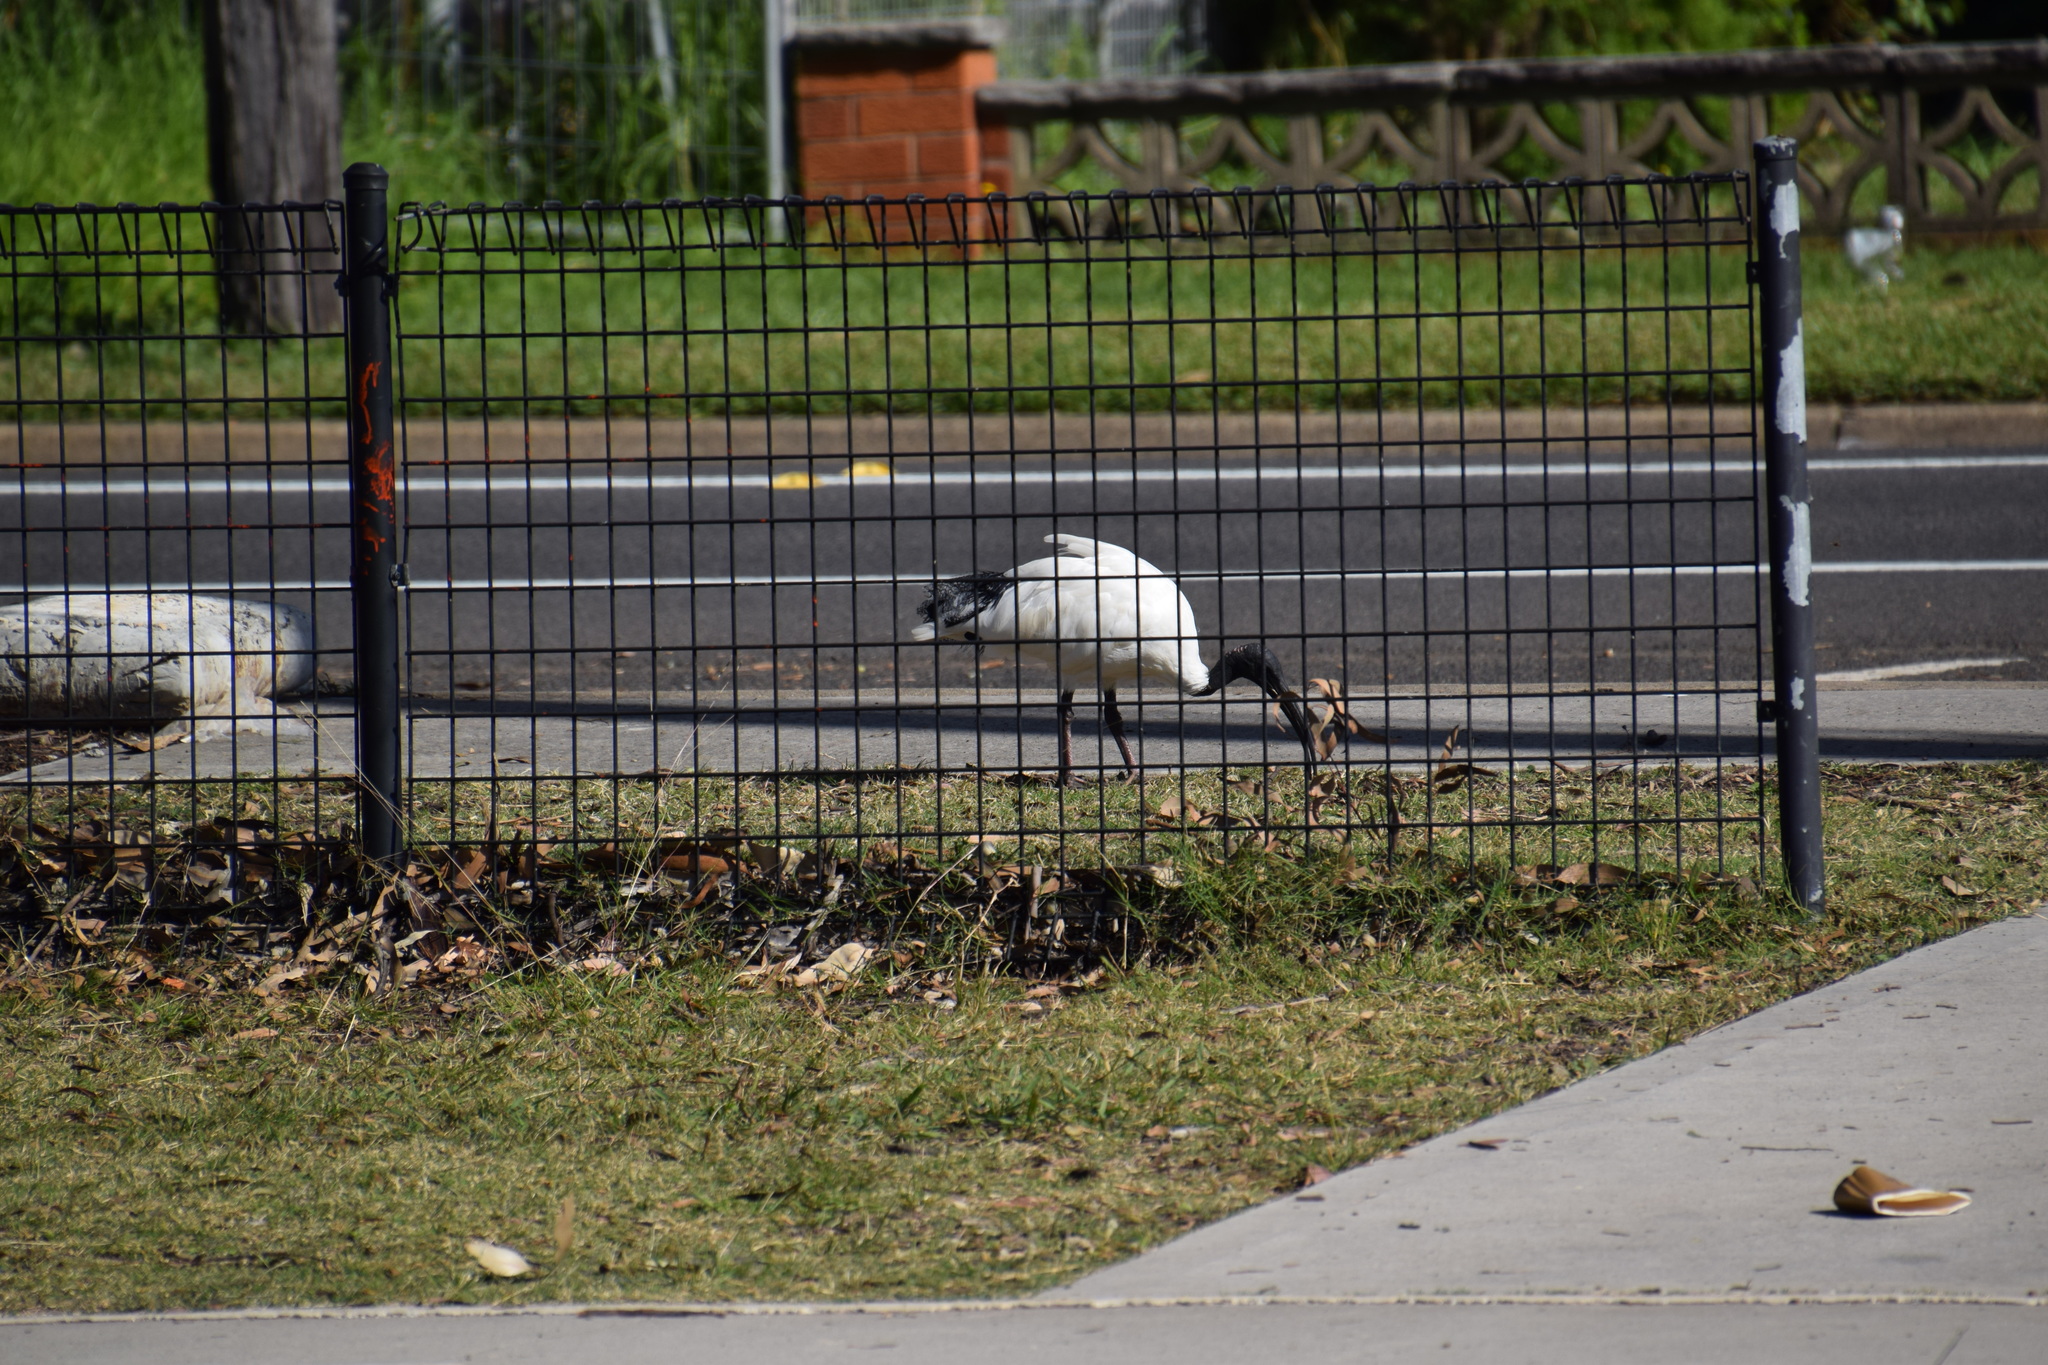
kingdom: Animalia
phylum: Chordata
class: Aves
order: Pelecaniformes
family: Threskiornithidae
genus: Threskiornis
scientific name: Threskiornis molucca
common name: Australian white ibis
